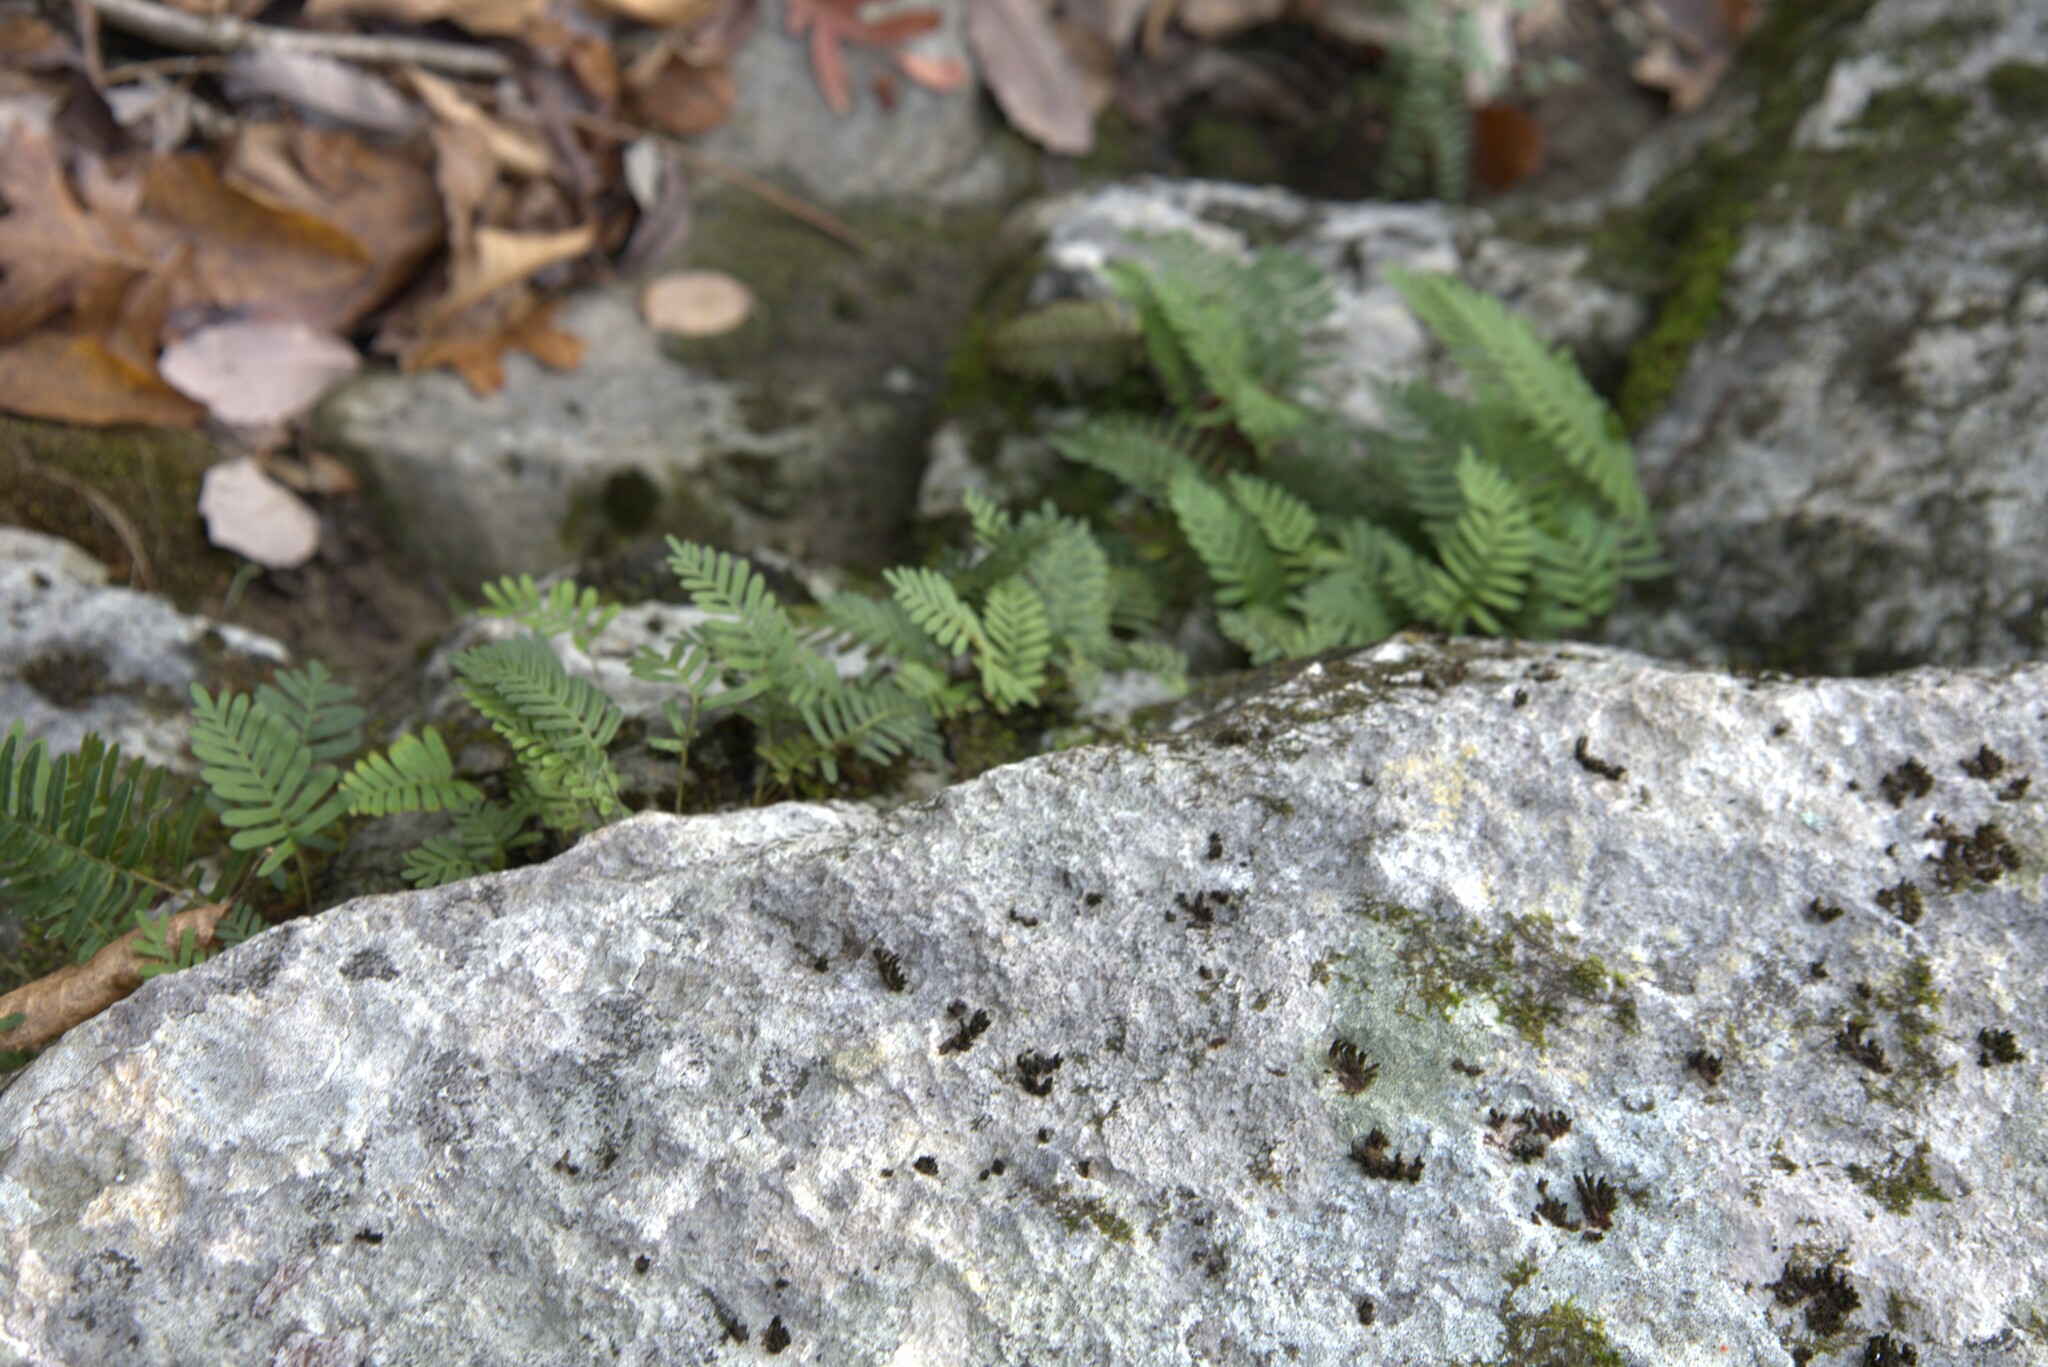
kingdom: Plantae
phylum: Tracheophyta
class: Polypodiopsida
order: Polypodiales
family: Polypodiaceae
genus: Pleopeltis
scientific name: Pleopeltis michauxiana
